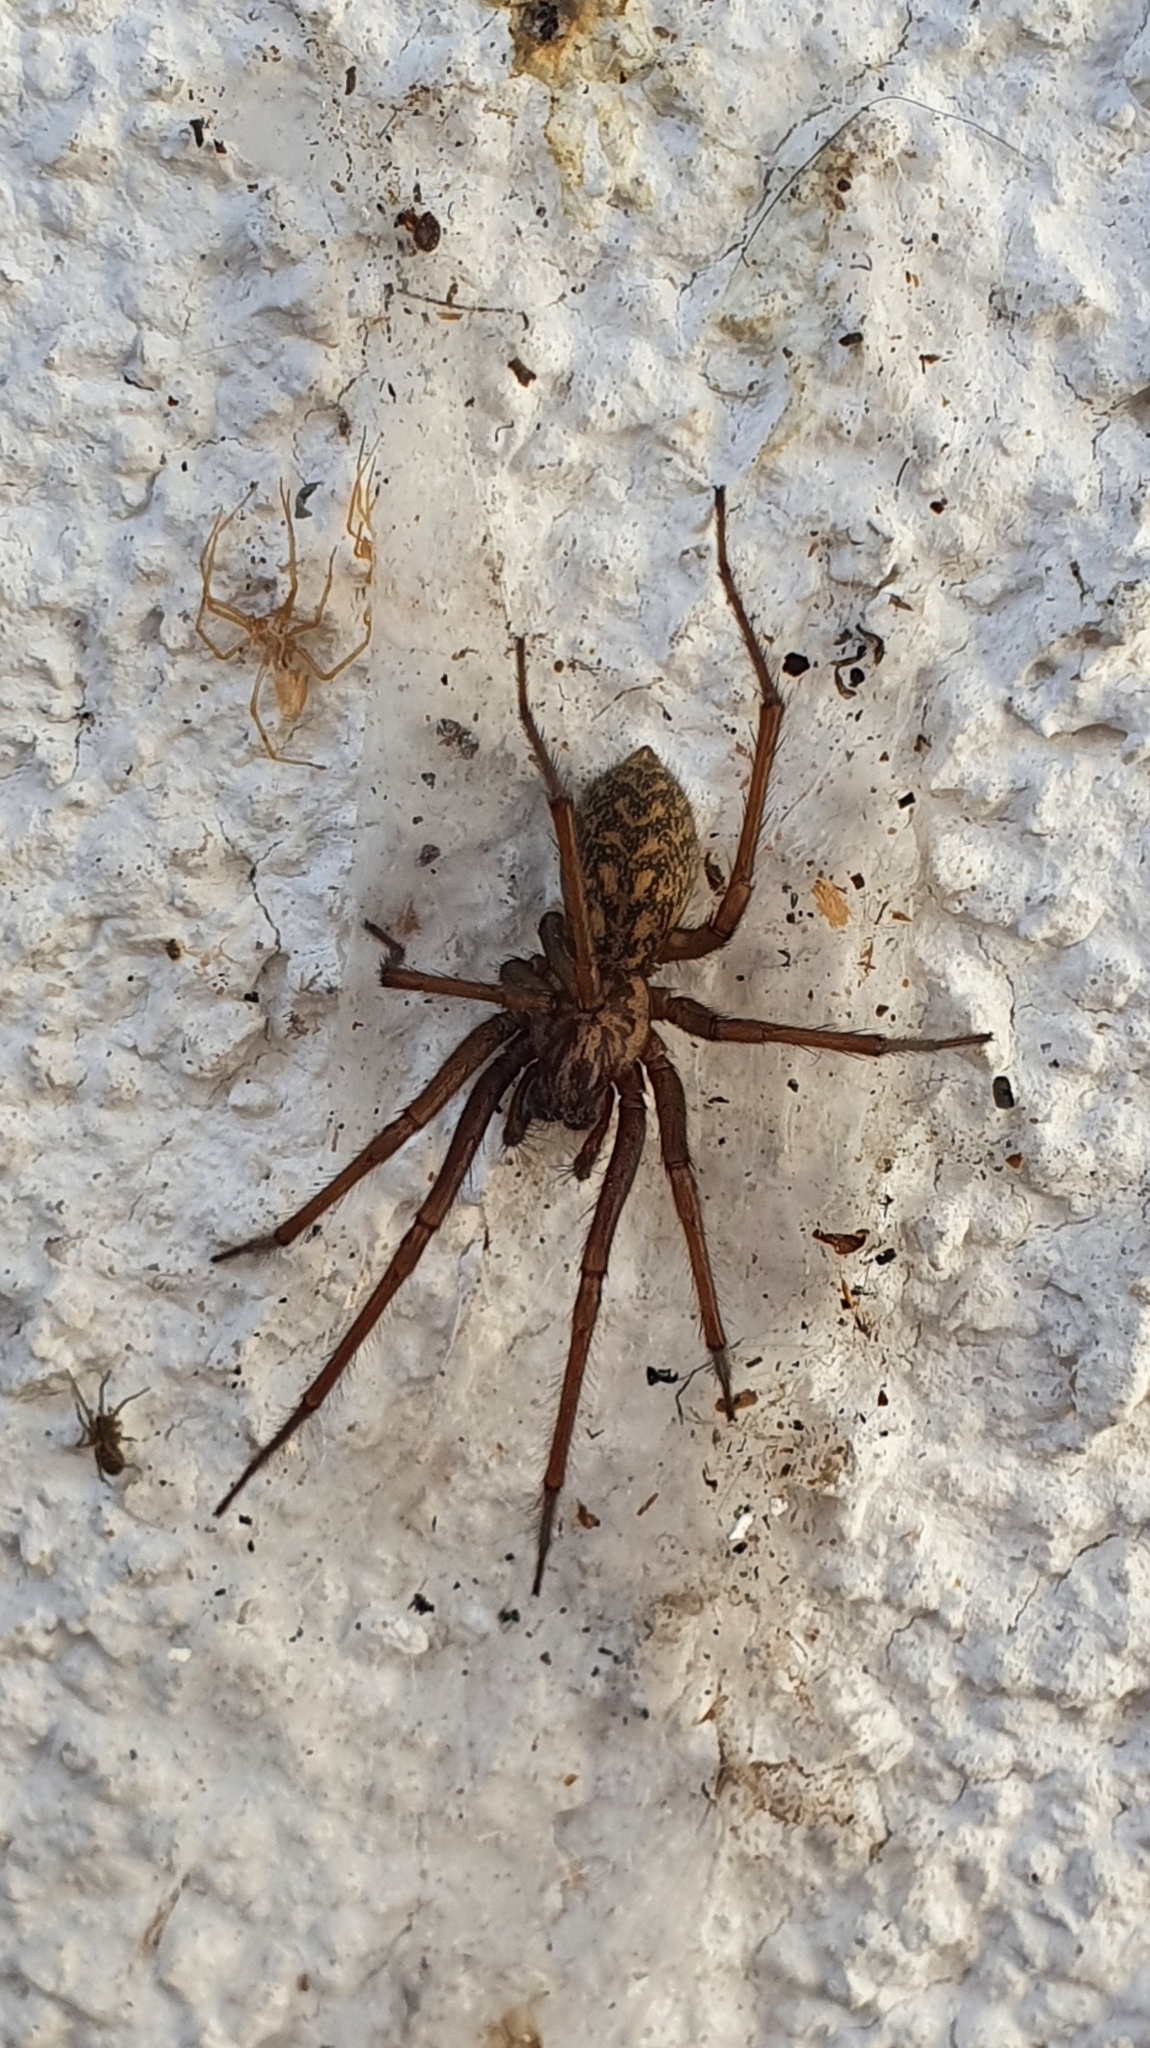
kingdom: Animalia
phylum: Arthropoda
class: Arachnida
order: Araneae
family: Agelenidae
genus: Eratigena
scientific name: Eratigena atrica
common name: Giant house spider
